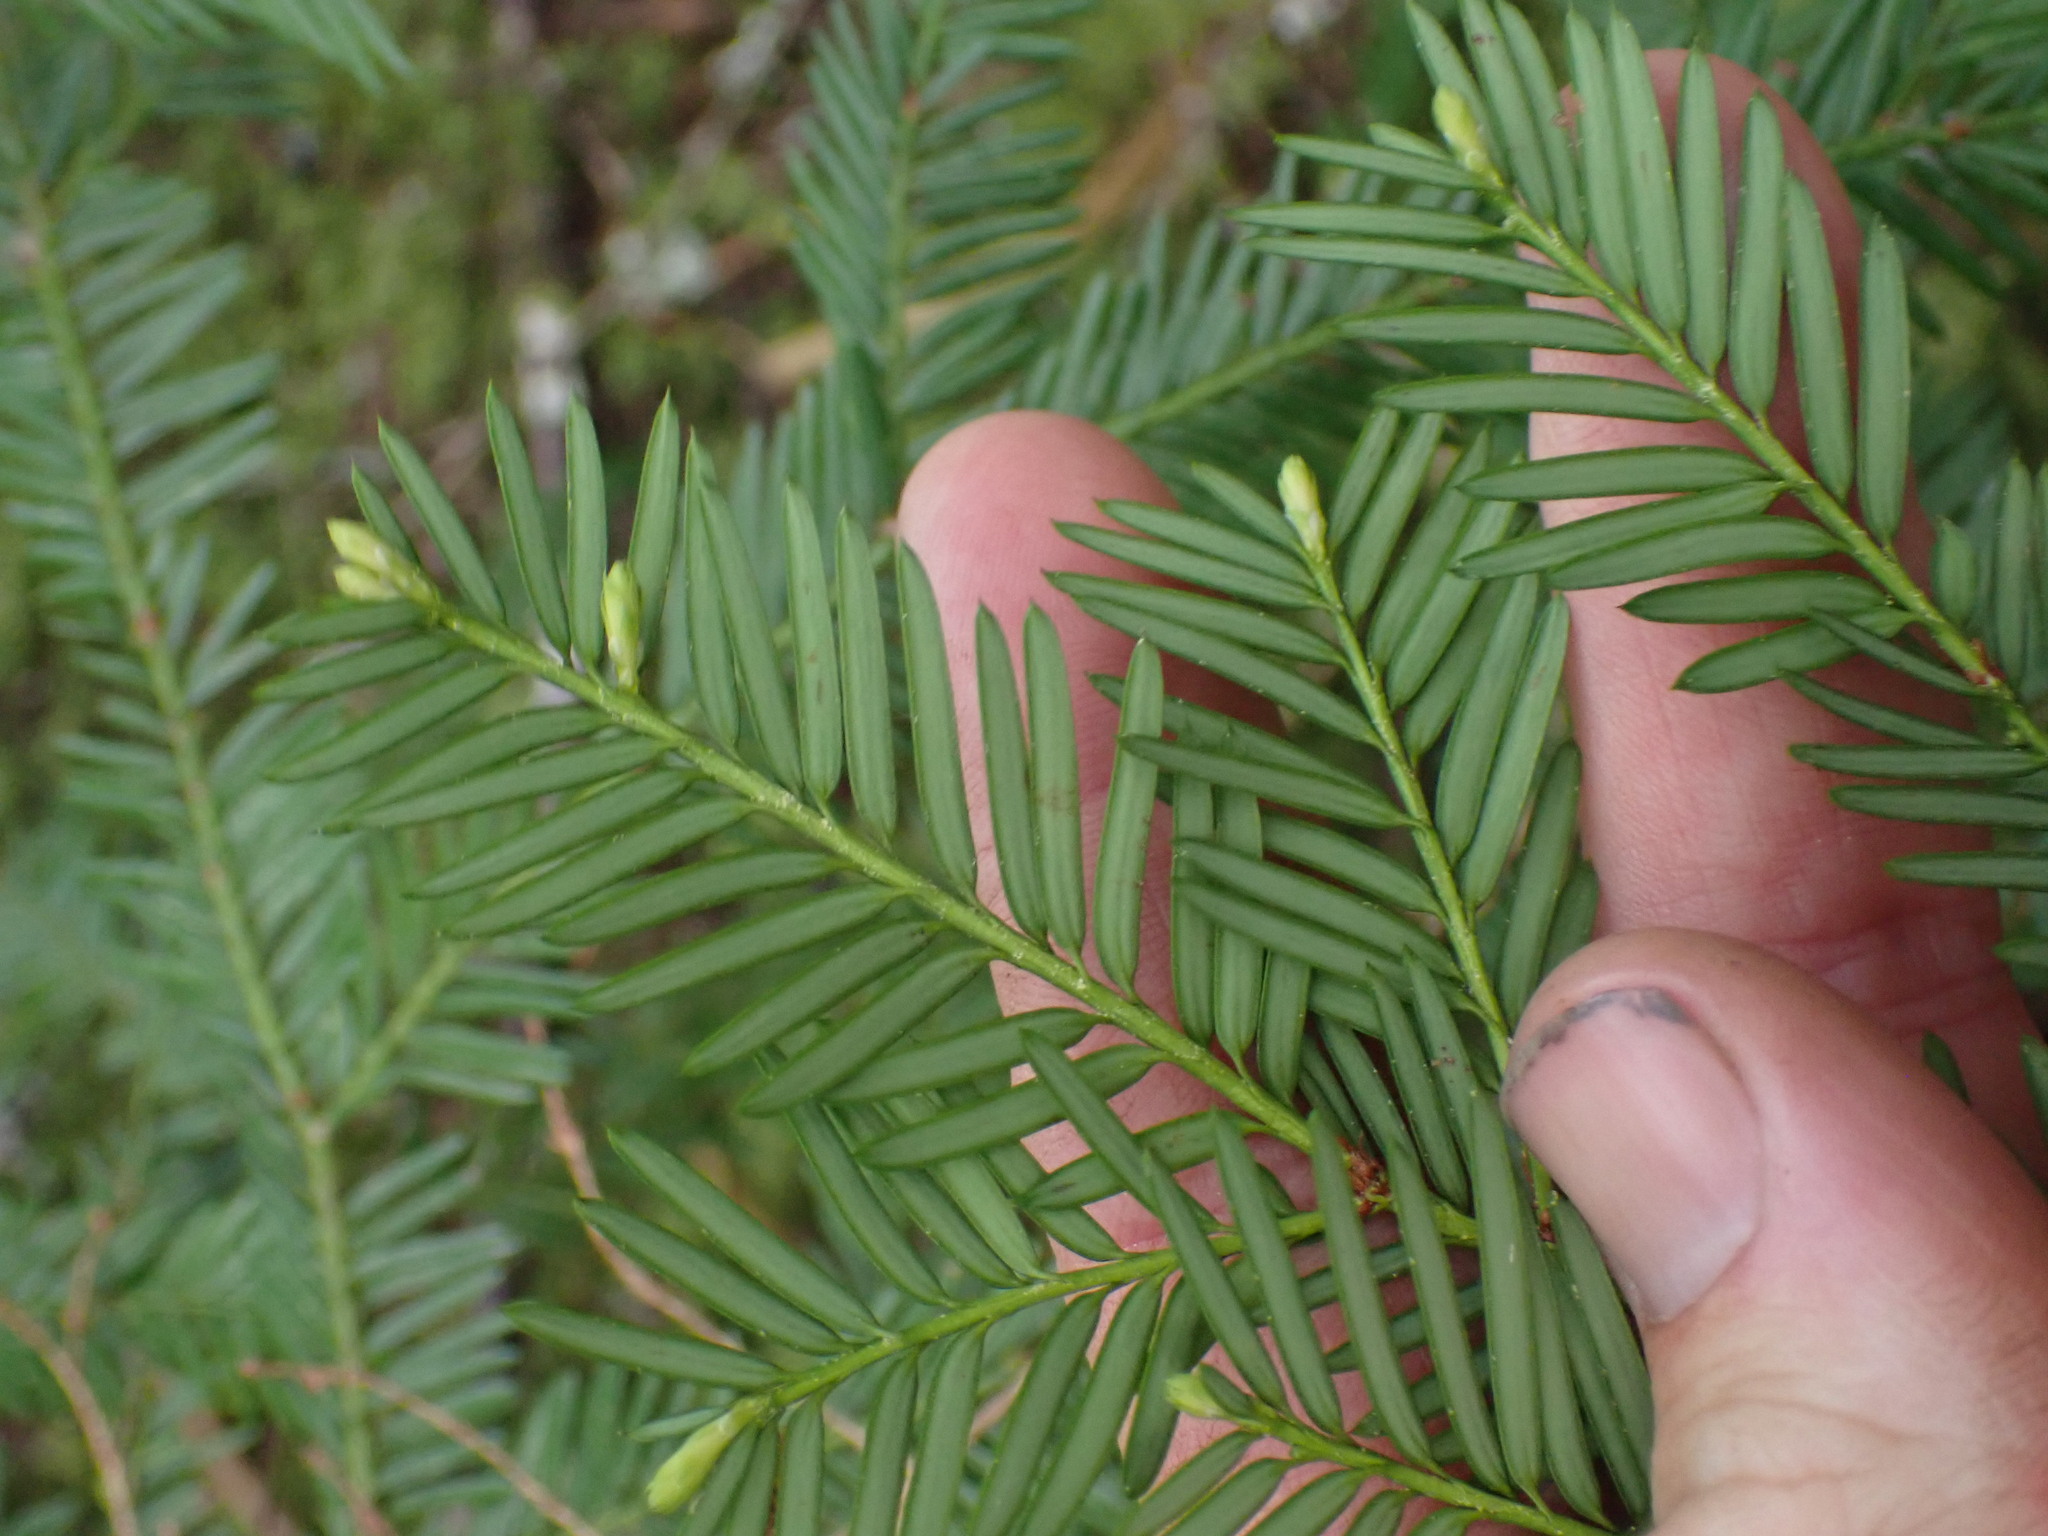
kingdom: Plantae
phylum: Tracheophyta
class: Pinopsida
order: Pinales
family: Taxaceae
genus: Taxus
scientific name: Taxus brevifolia
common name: Pacific yew
